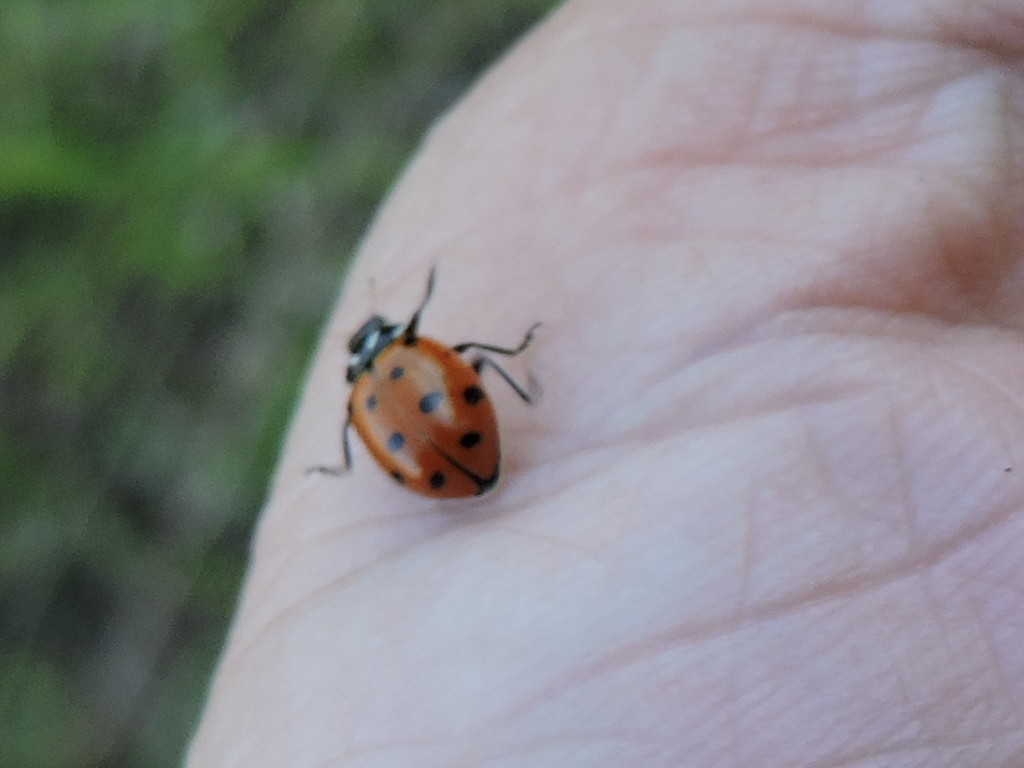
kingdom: Animalia
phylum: Arthropoda
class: Insecta
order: Coleoptera
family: Coccinellidae
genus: Hippodamia
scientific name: Hippodamia convergens
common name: Convergent lady beetle
